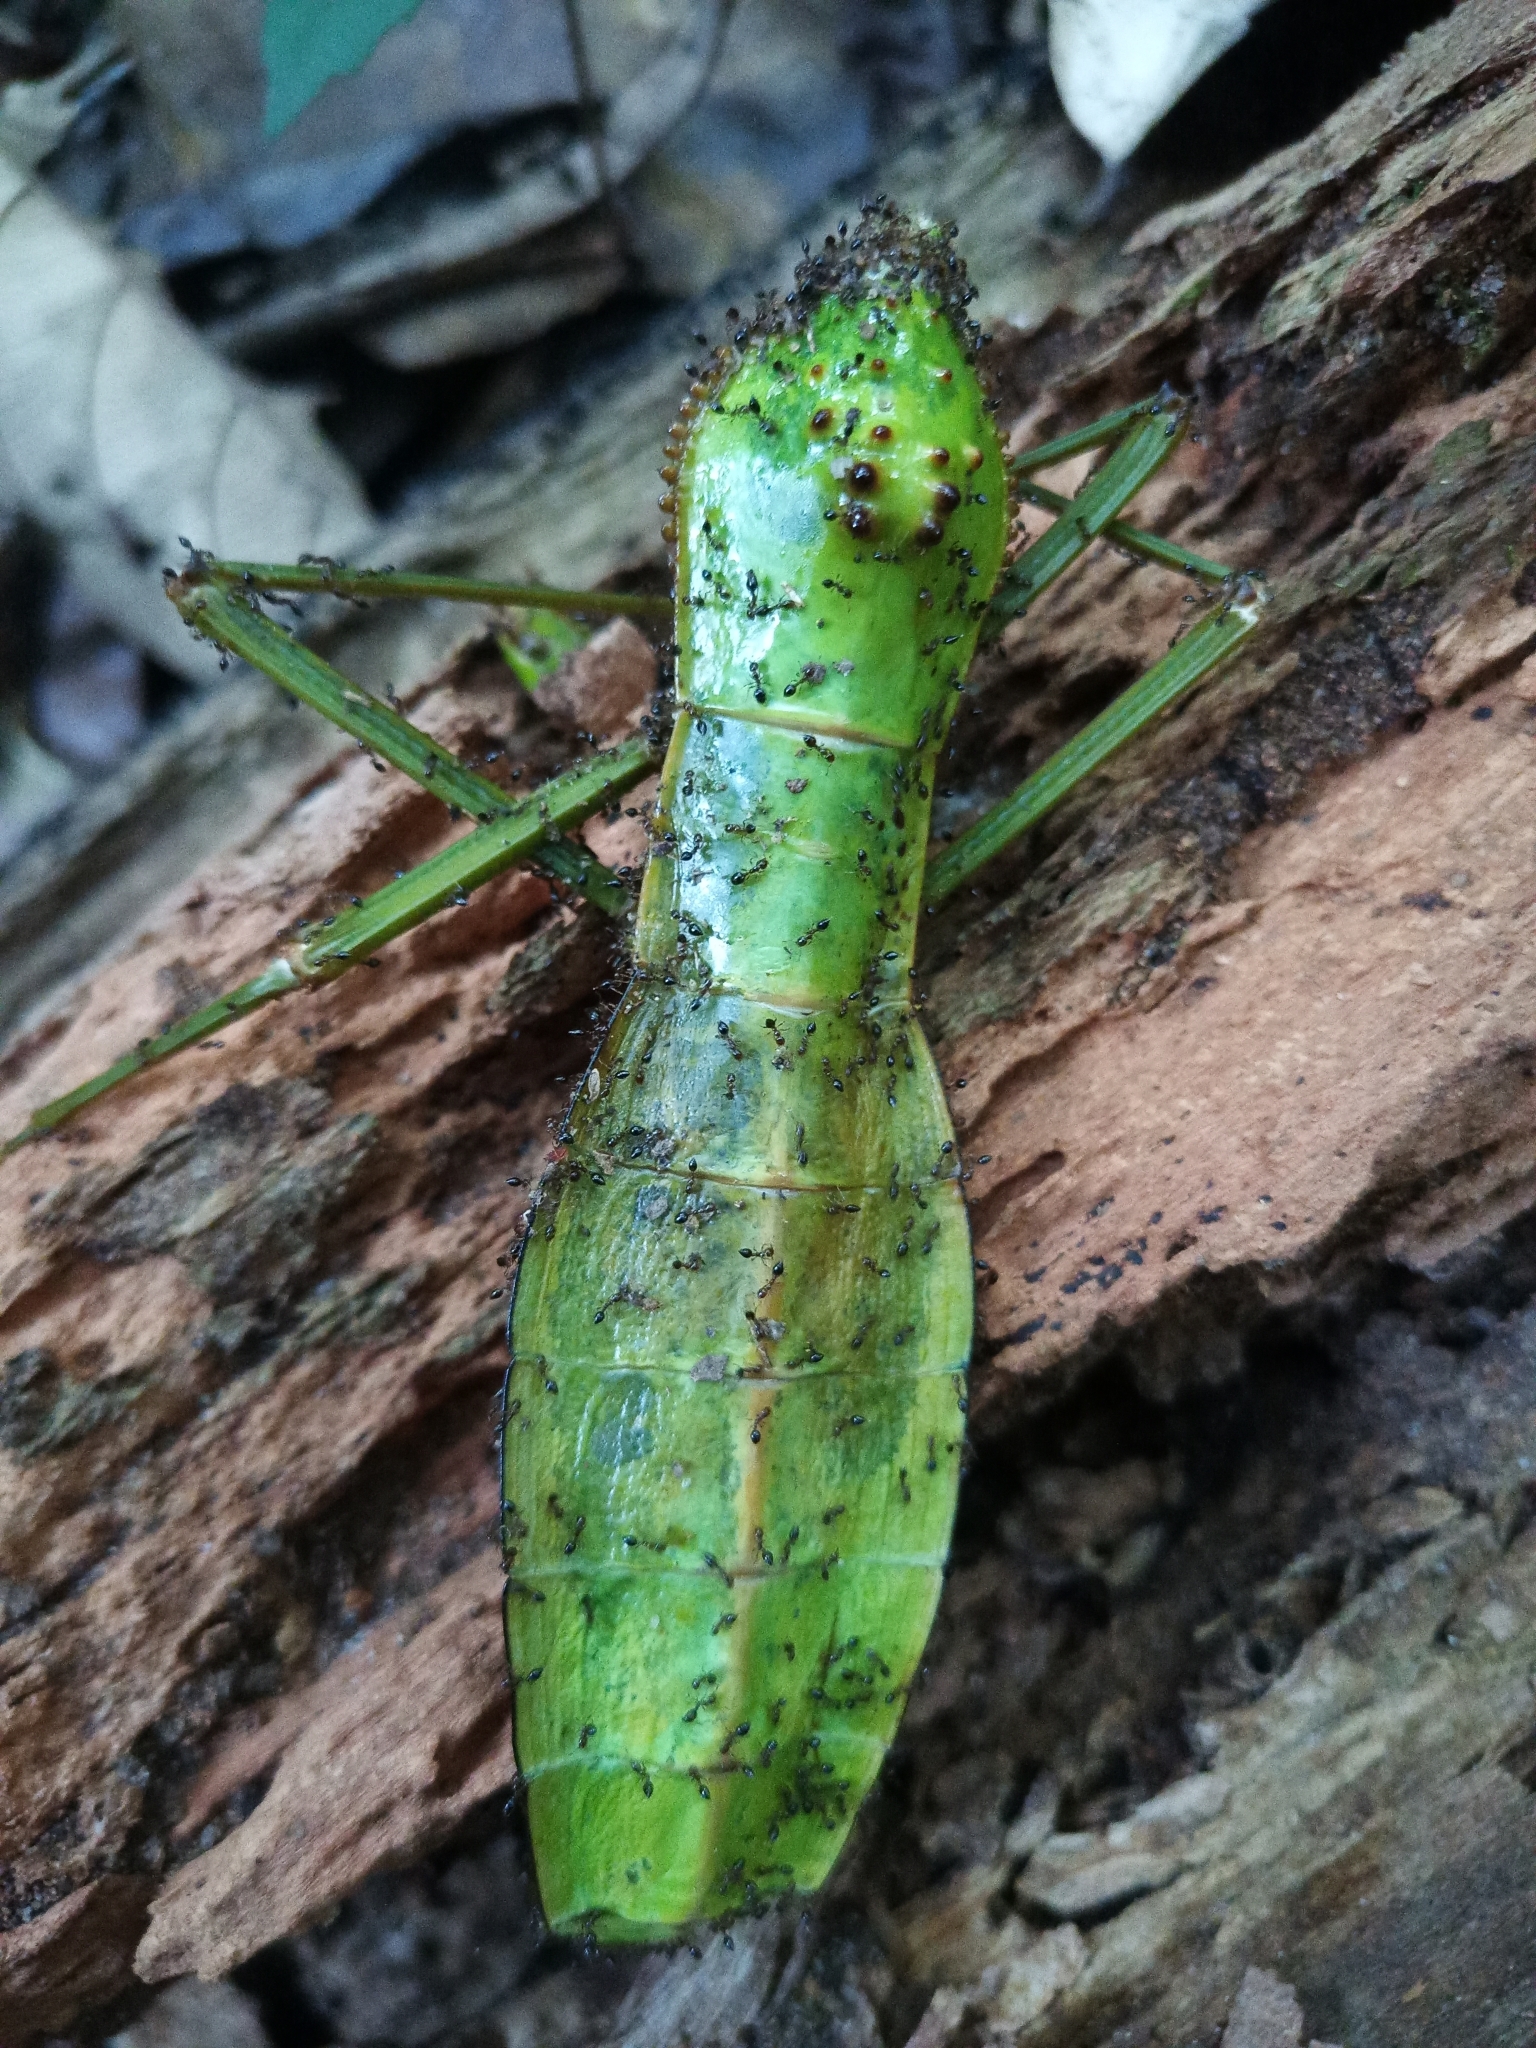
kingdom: Animalia
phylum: Arthropoda
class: Insecta
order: Phasmida
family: Phasmatidae
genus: Cranidium
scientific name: Cranidium gibbosum
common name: Hump-backed stick insect
